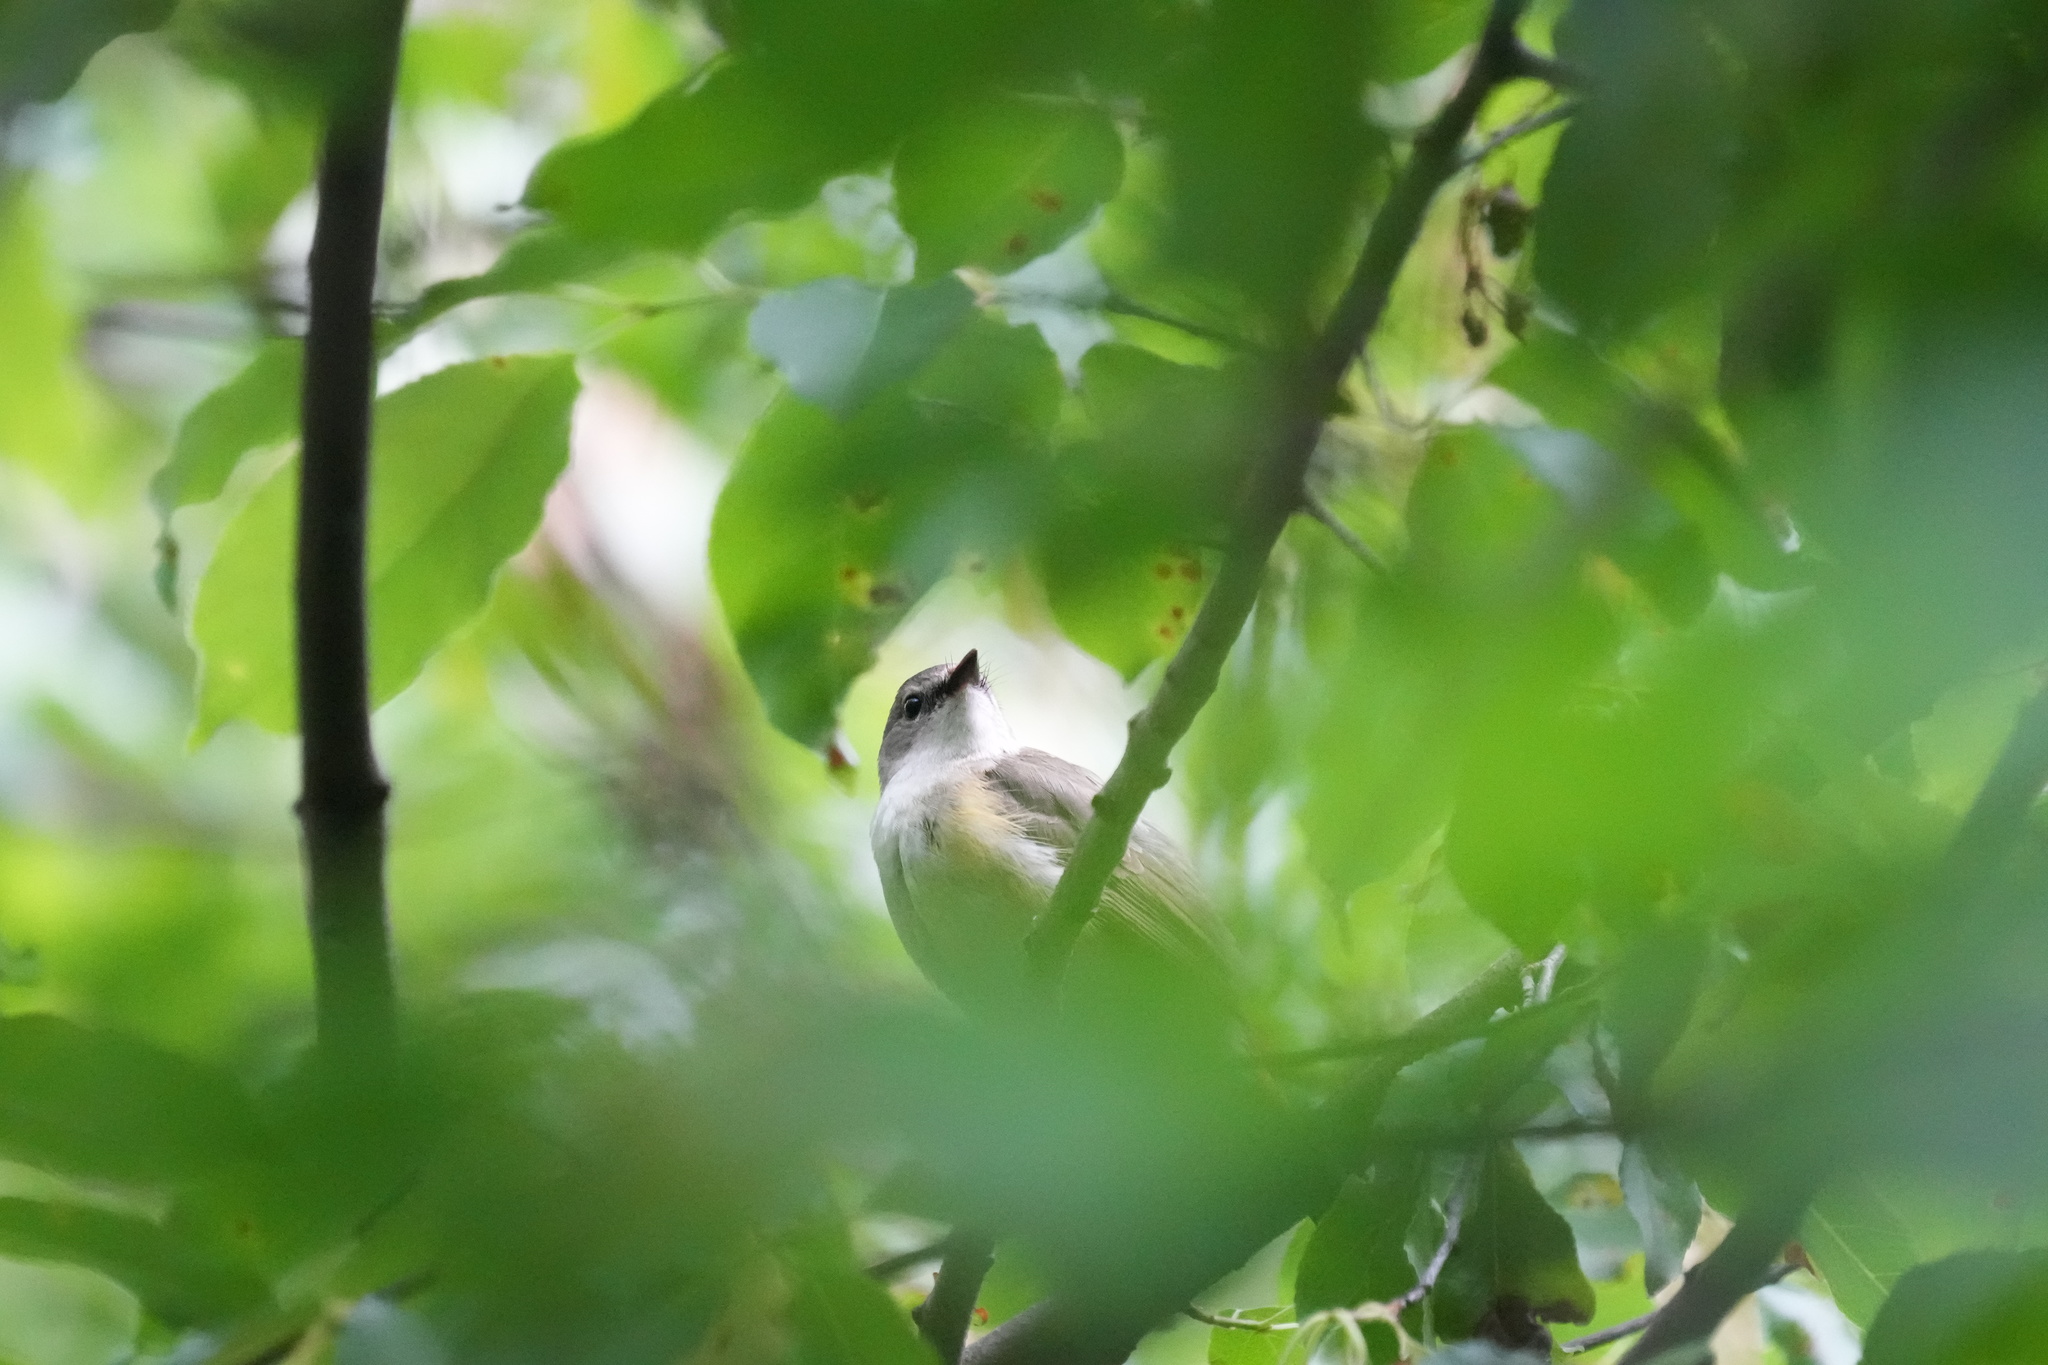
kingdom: Animalia
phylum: Chordata
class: Aves
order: Passeriformes
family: Parulidae
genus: Setophaga
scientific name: Setophaga ruticilla
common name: American redstart
